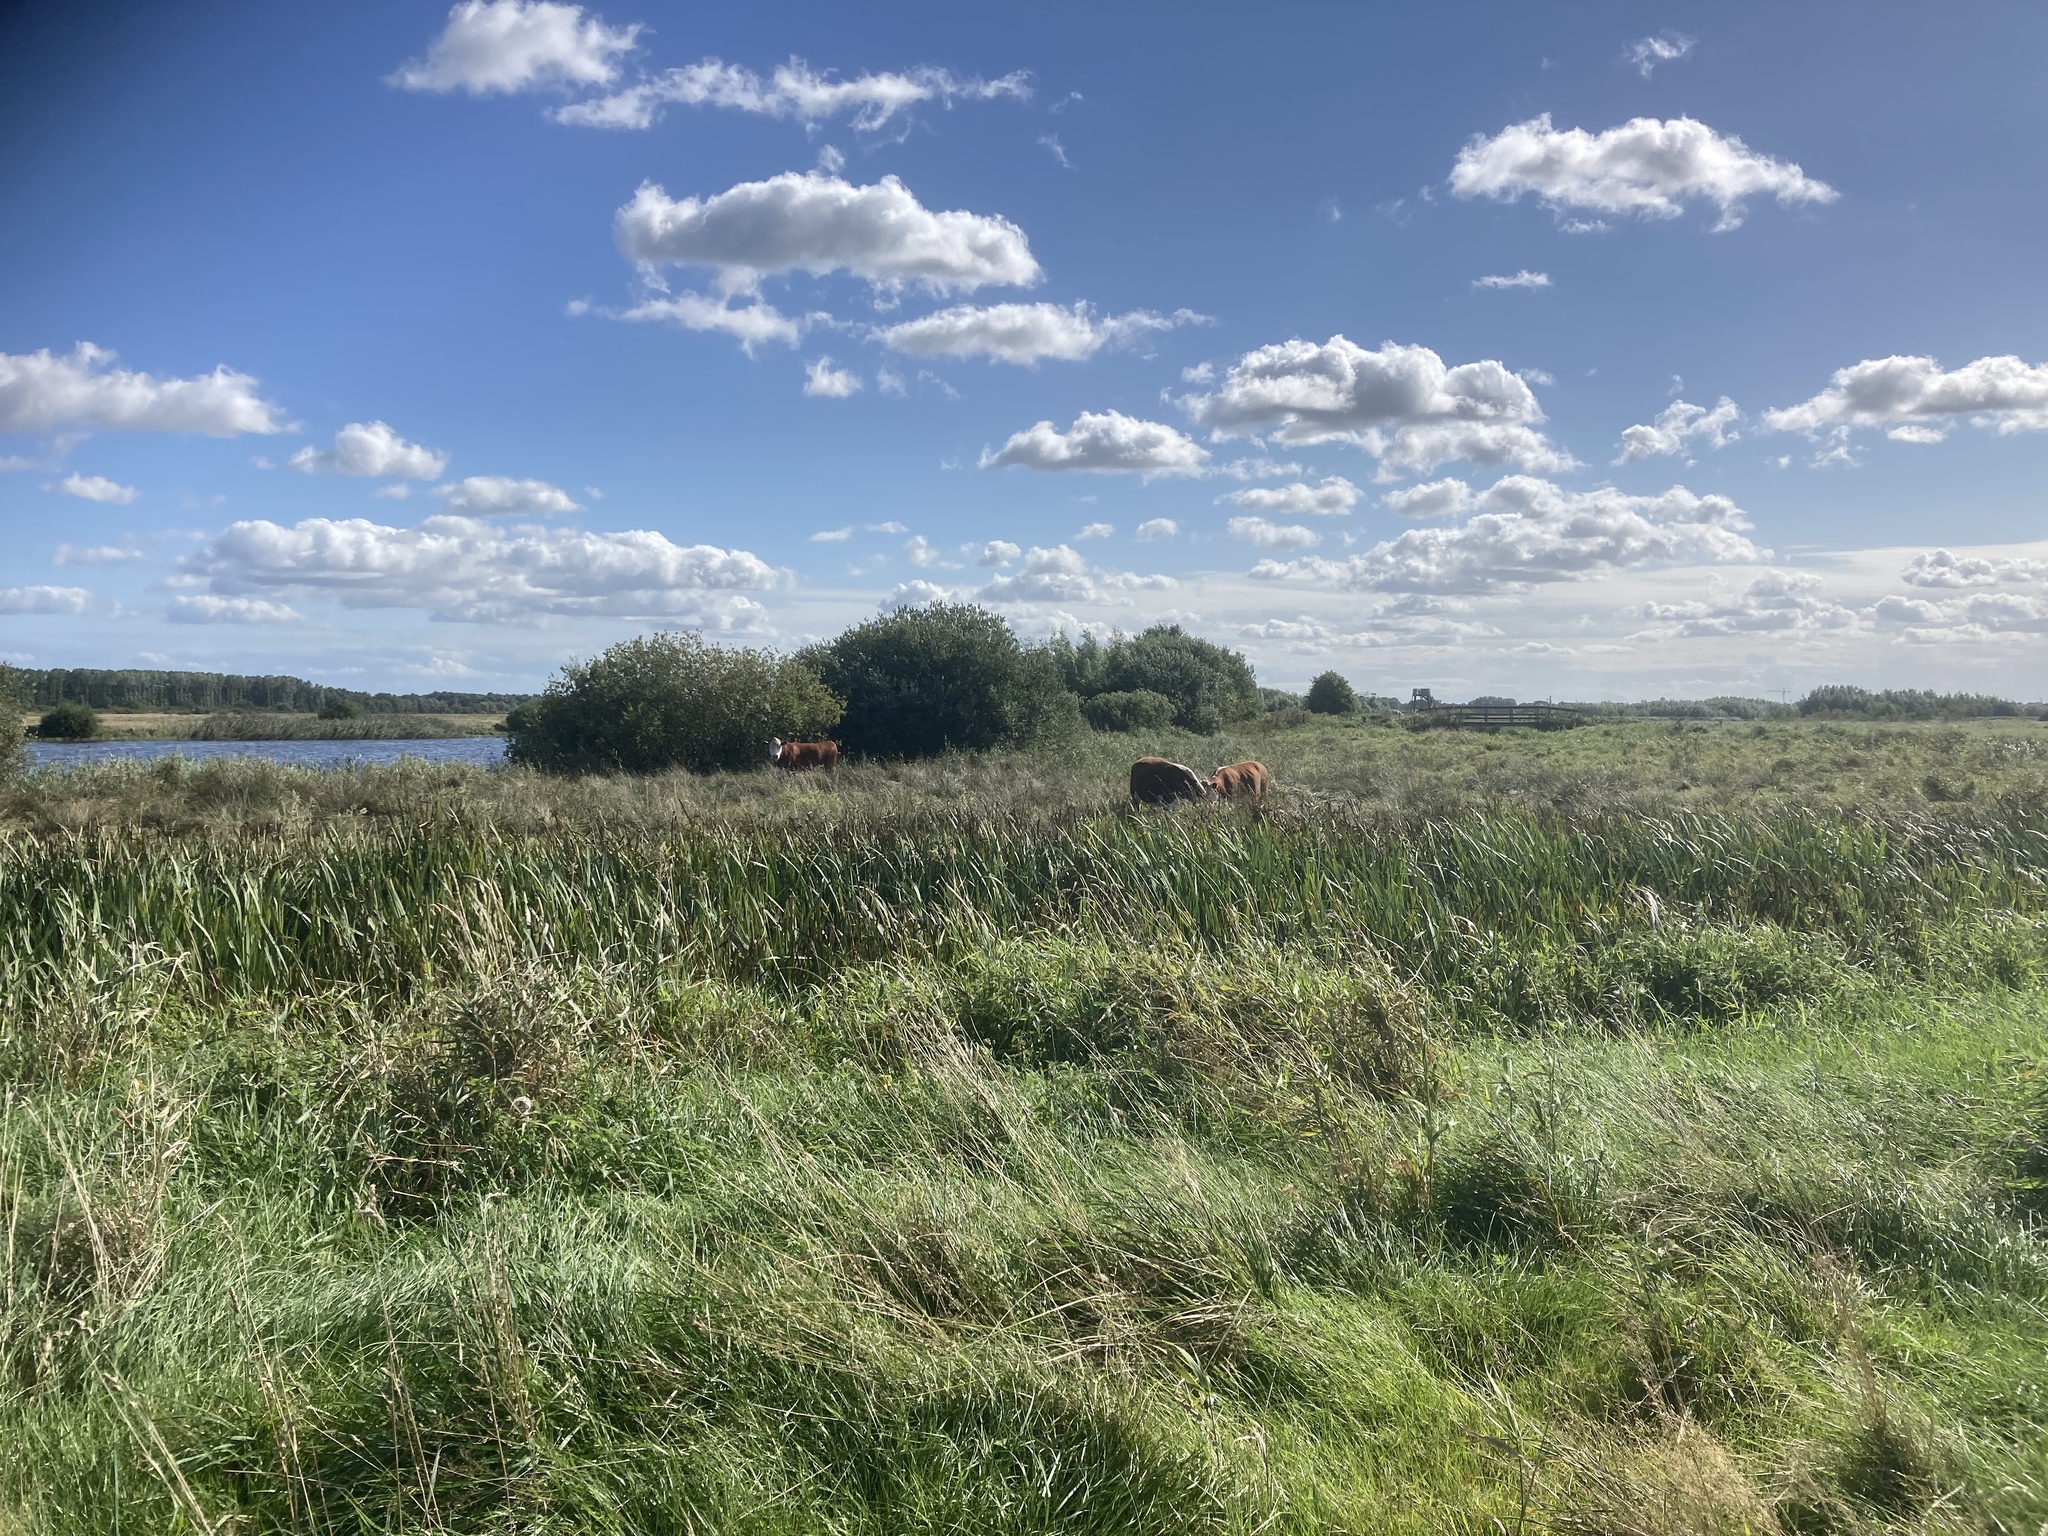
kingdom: Plantae
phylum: Tracheophyta
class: Liliopsida
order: Poales
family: Poaceae
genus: Phragmites
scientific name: Phragmites australis
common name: Common reed
